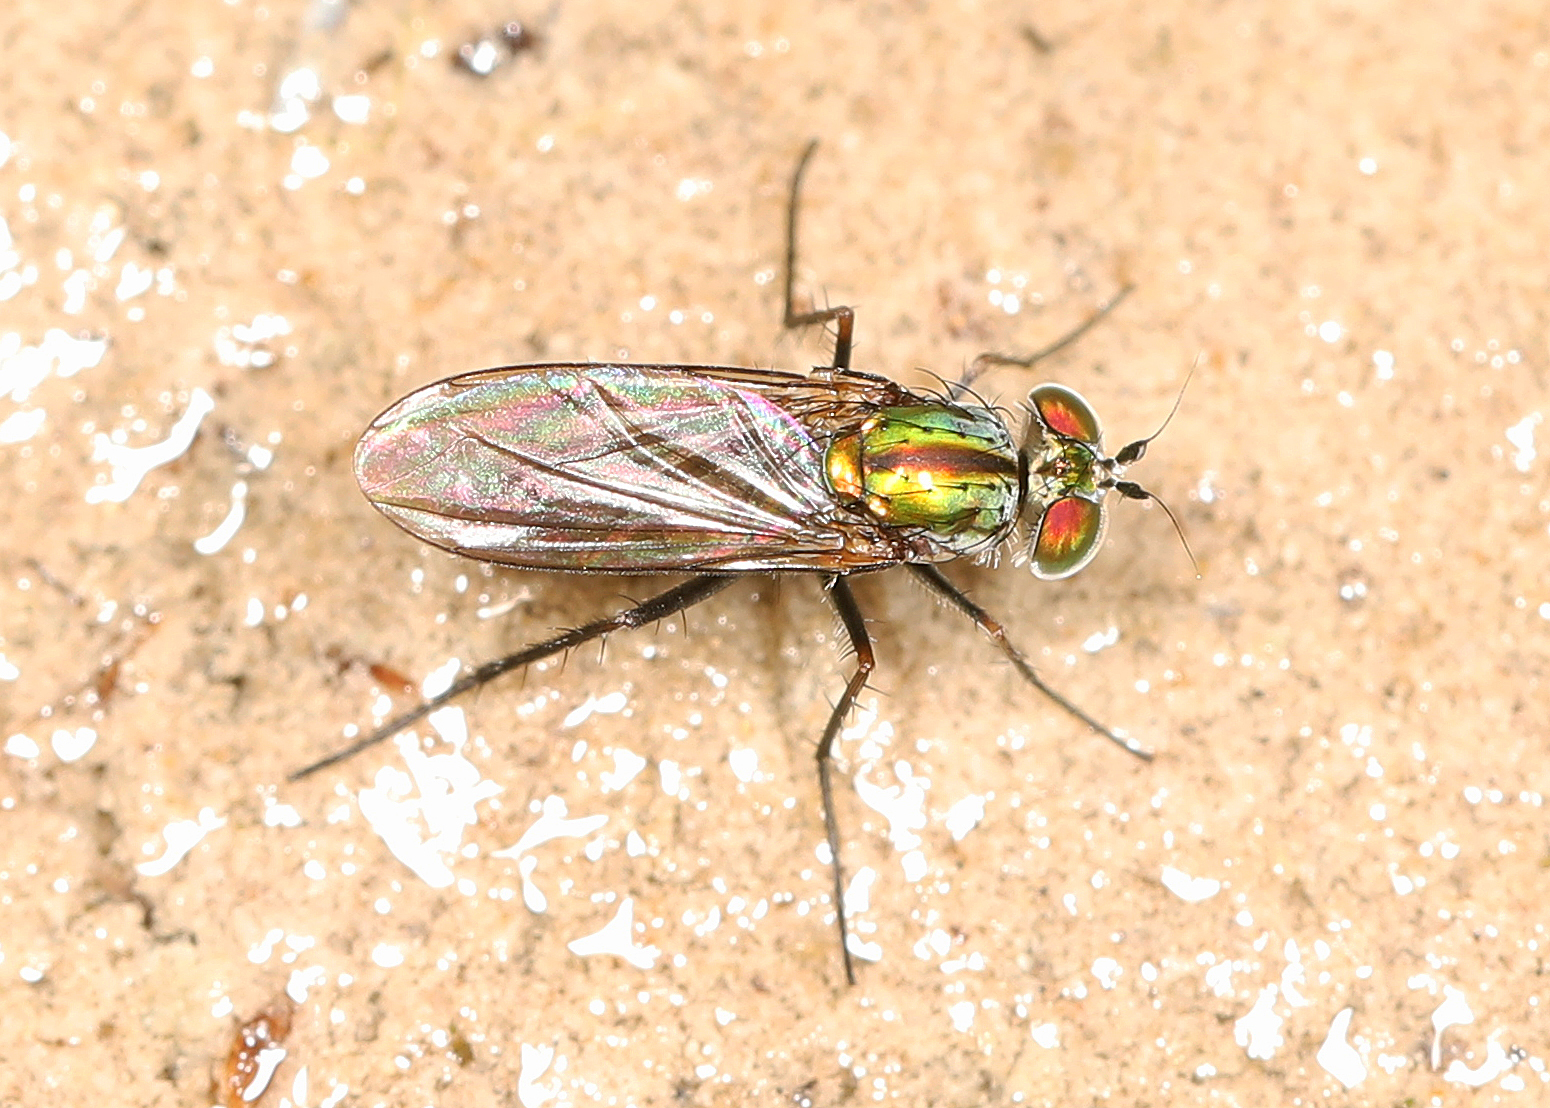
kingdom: Animalia
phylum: Arthropoda
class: Insecta
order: Diptera
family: Dolichopodidae
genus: Plagioneurus
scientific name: Plagioneurus univittatus
